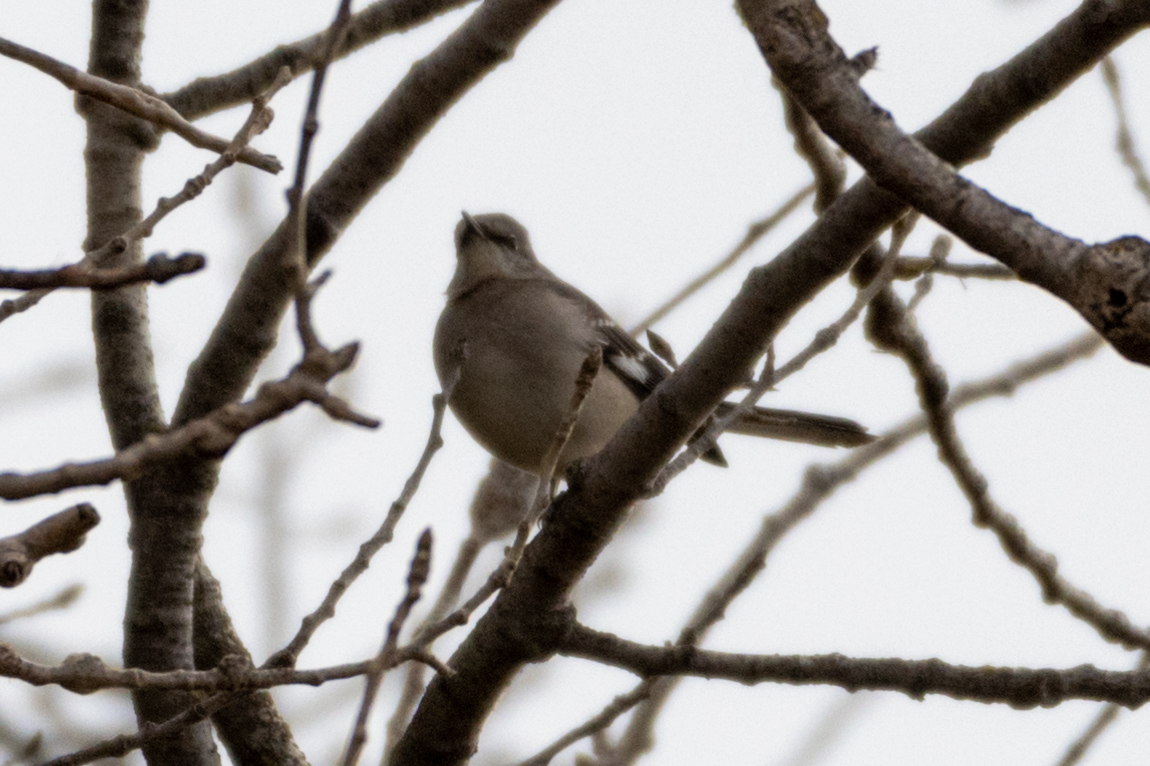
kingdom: Animalia
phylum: Chordata
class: Aves
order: Passeriformes
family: Mimidae
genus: Mimus
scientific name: Mimus polyglottos
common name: Northern mockingbird
